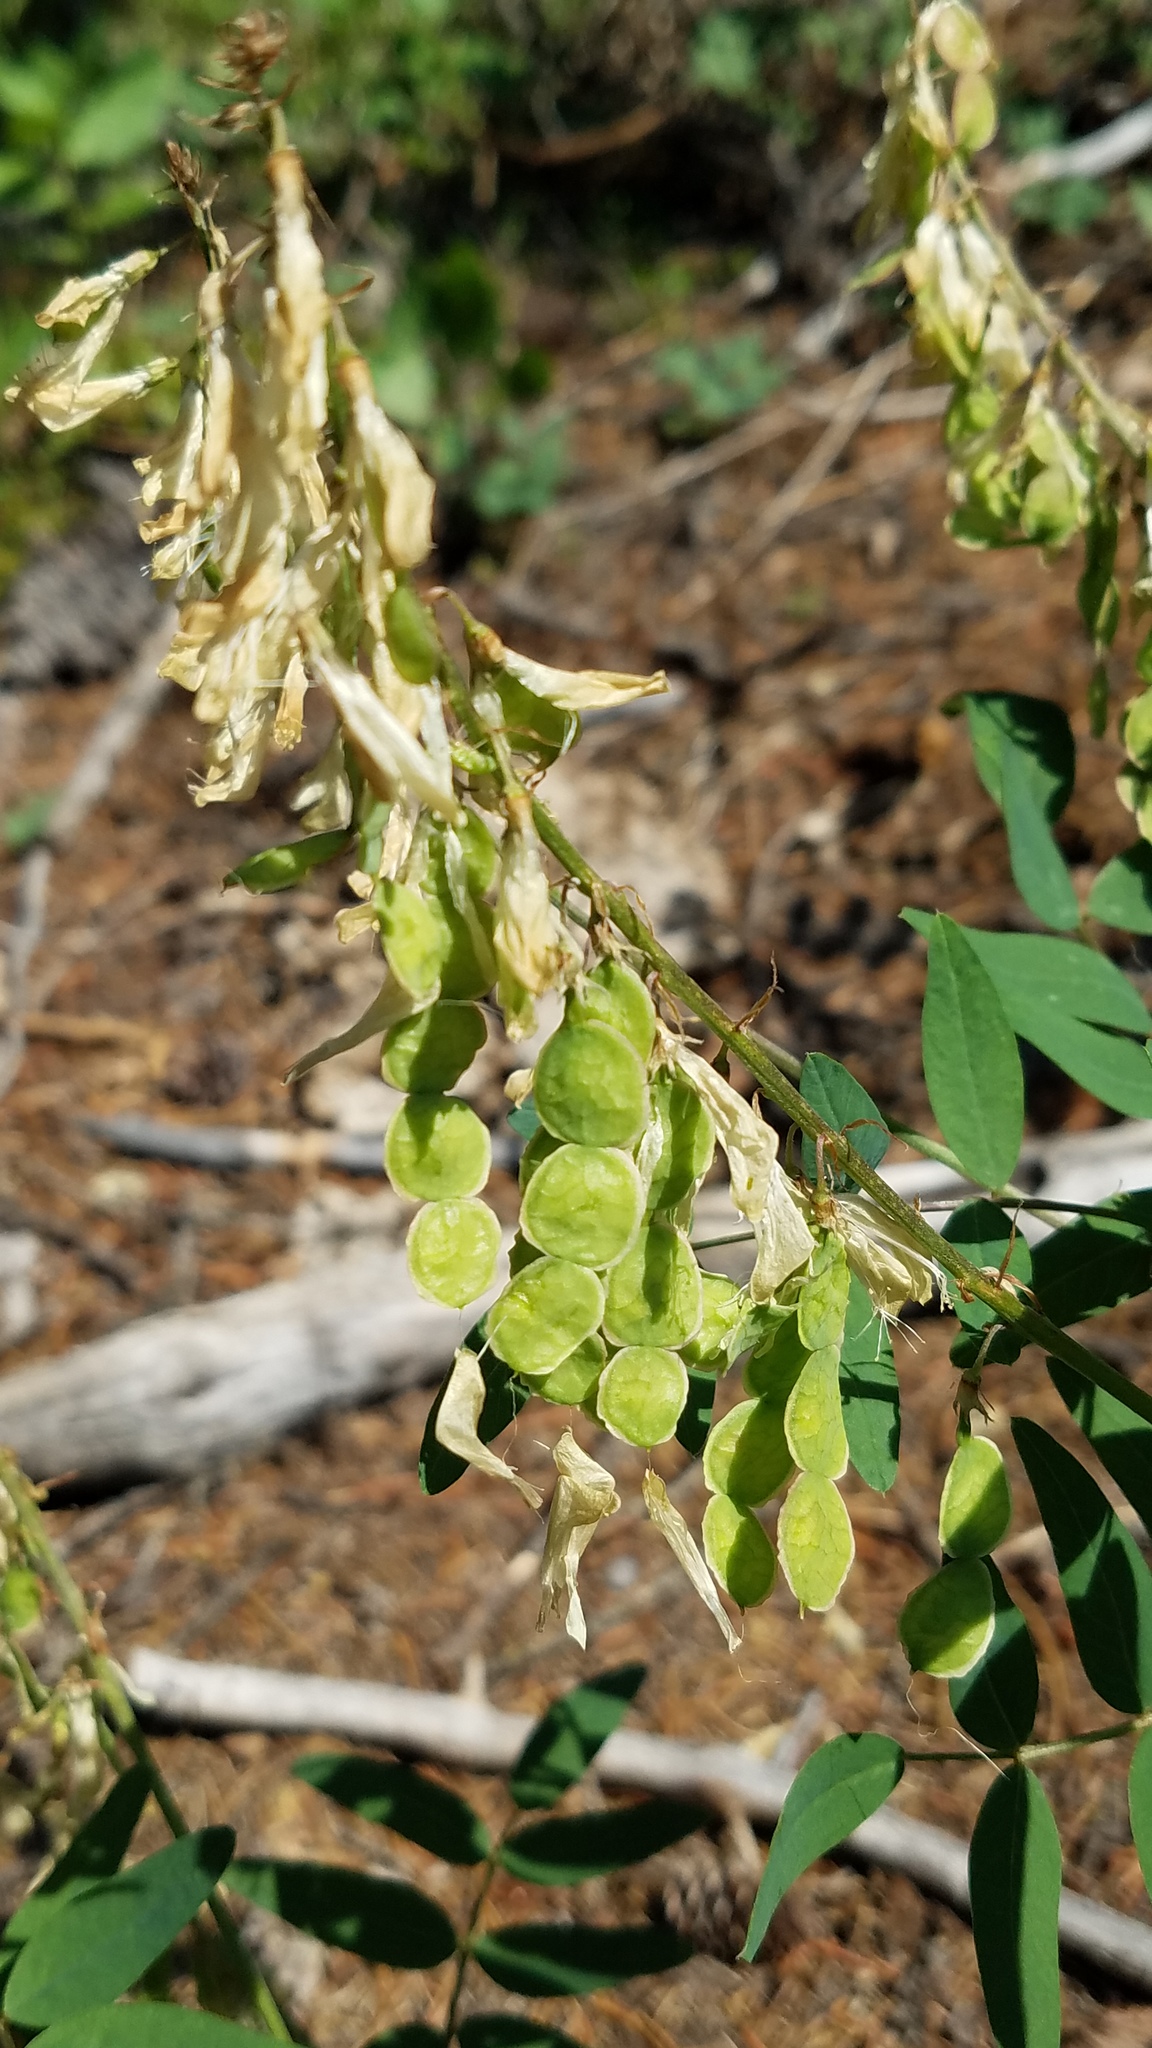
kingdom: Plantae
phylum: Tracheophyta
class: Magnoliopsida
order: Fabales
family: Fabaceae
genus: Hedysarum
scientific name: Hedysarum sulphurescens
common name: Sulphur hedysarum
